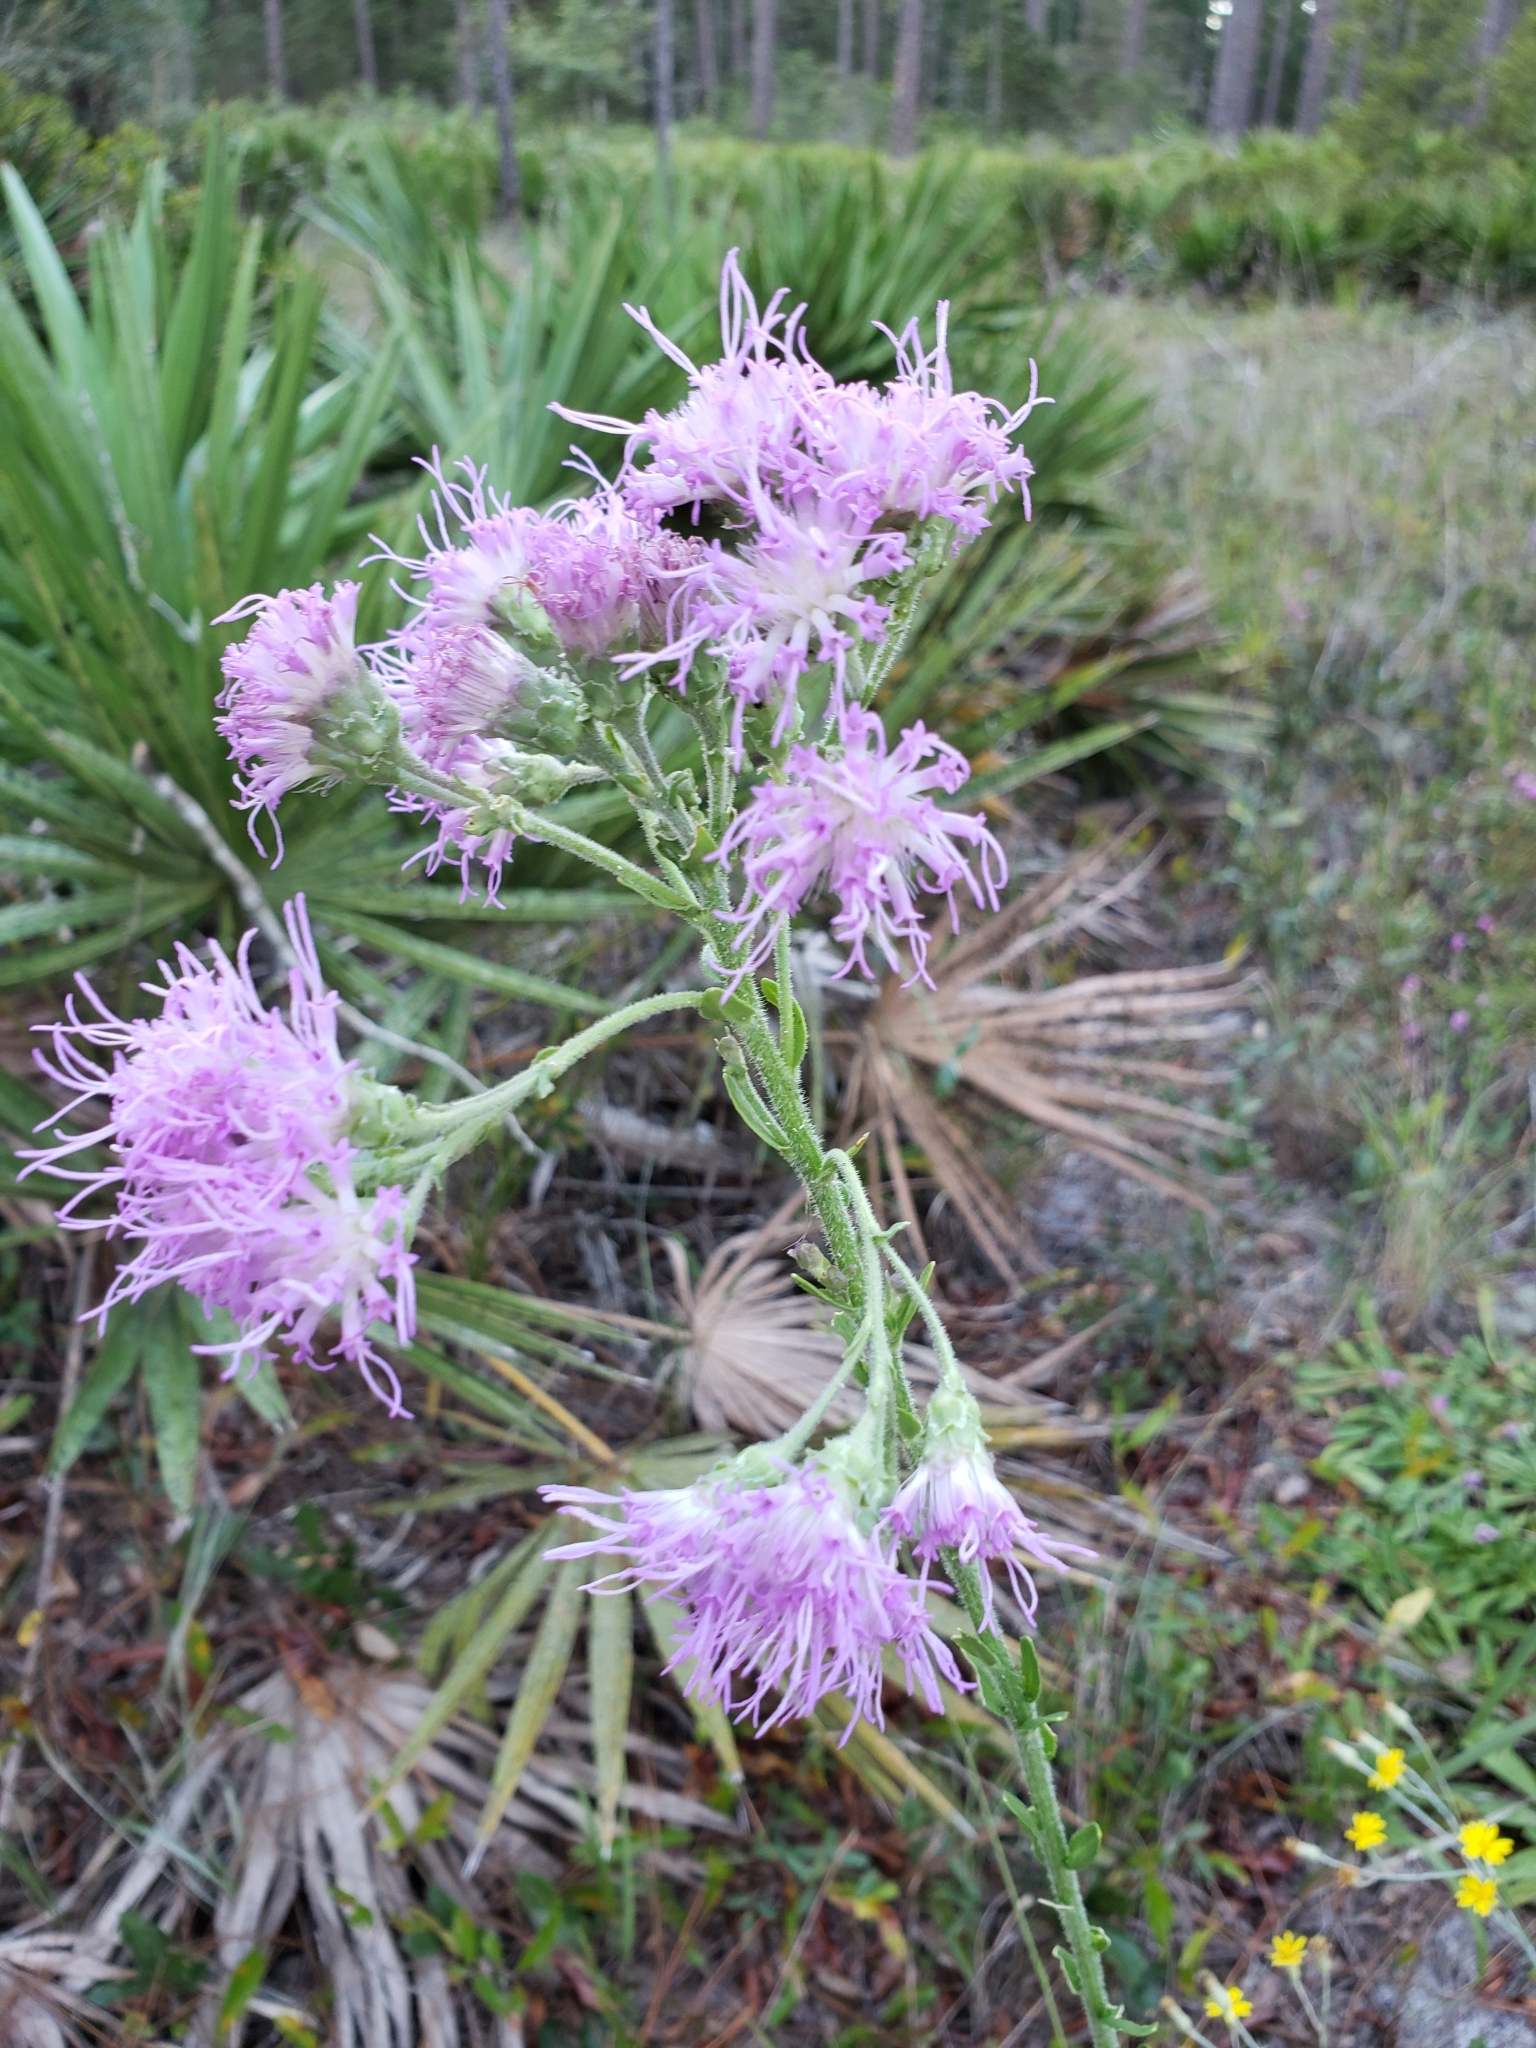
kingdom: Plantae
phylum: Tracheophyta
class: Magnoliopsida
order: Asterales
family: Asteraceae
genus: Carphephorus
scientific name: Carphephorus corymbosus
